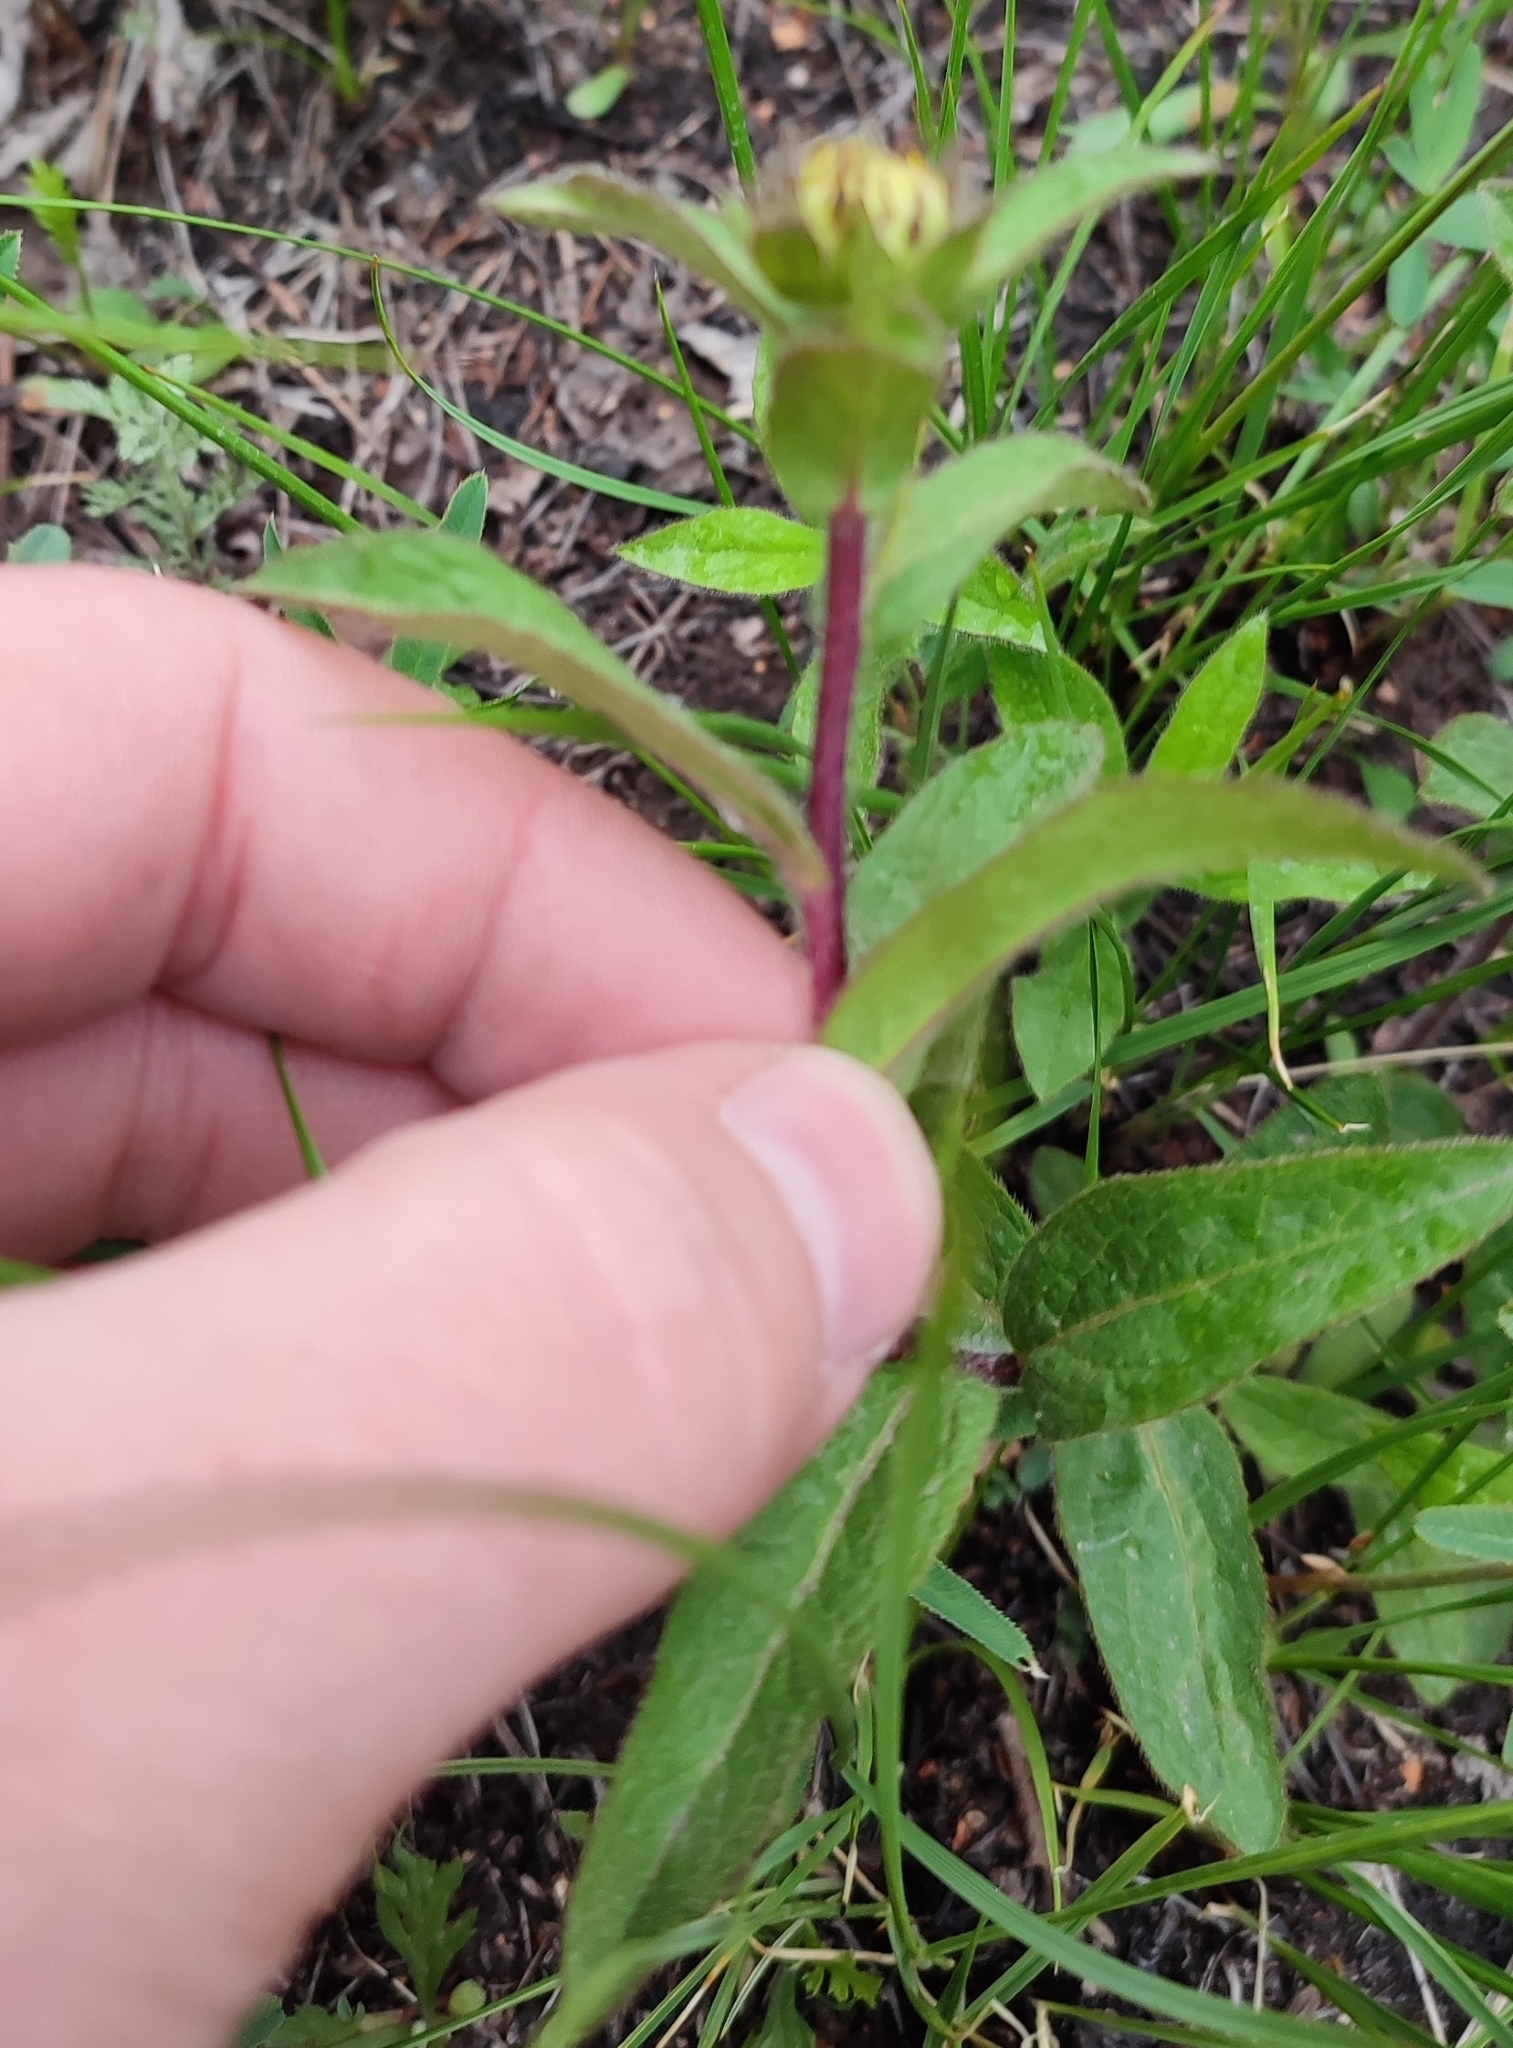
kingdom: Plantae
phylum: Tracheophyta
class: Magnoliopsida
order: Asterales
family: Asteraceae
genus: Pentanema
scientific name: Pentanema hirtum
